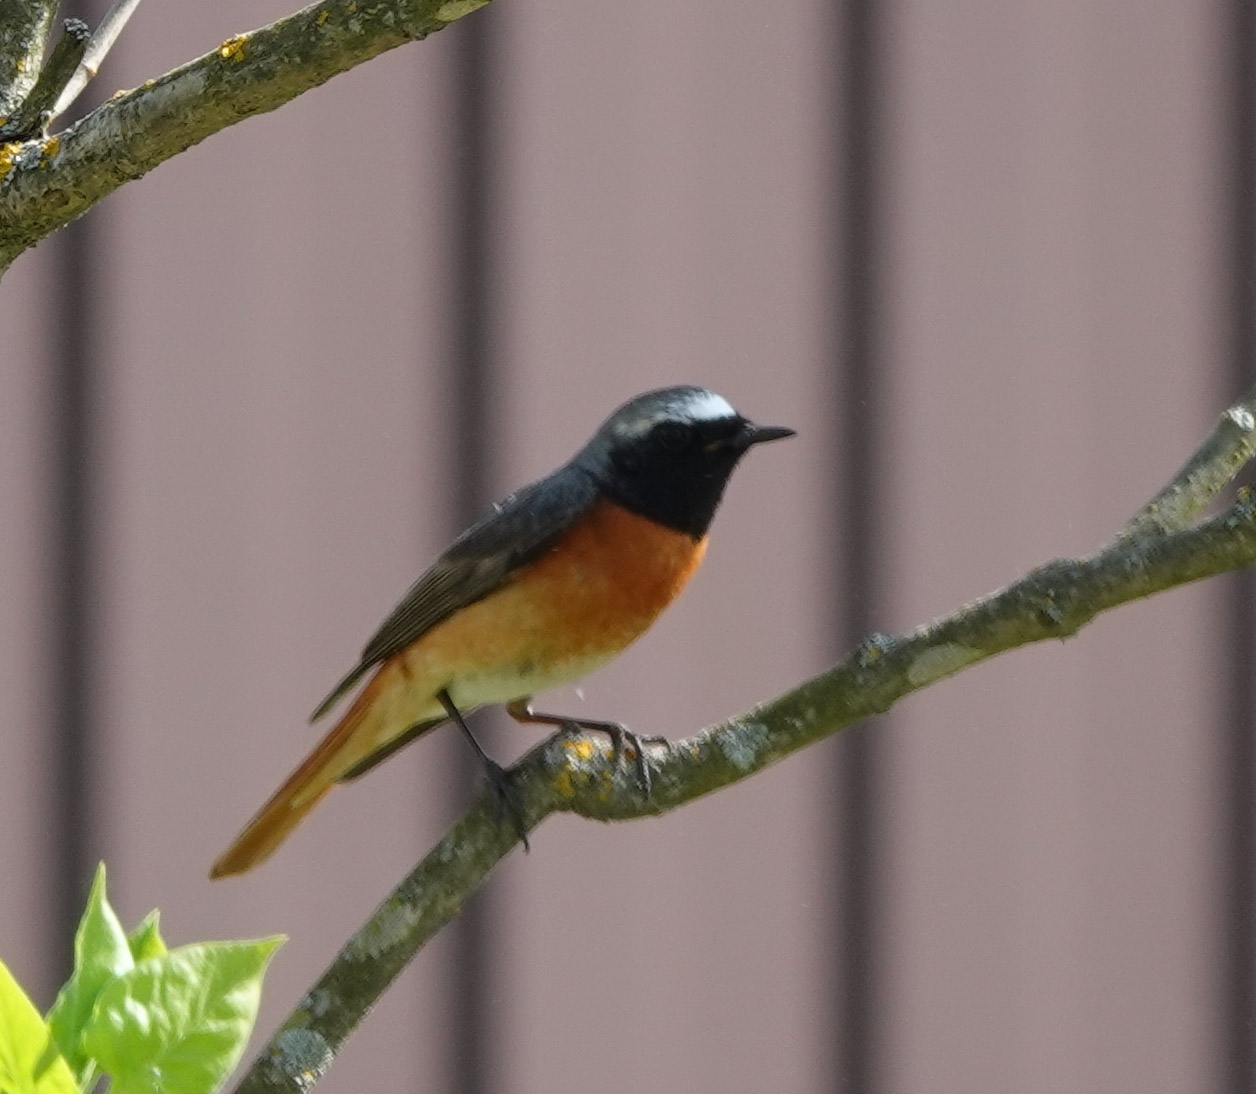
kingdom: Animalia
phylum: Chordata
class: Aves
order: Passeriformes
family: Muscicapidae
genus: Phoenicurus
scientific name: Phoenicurus phoenicurus
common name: Common redstart
